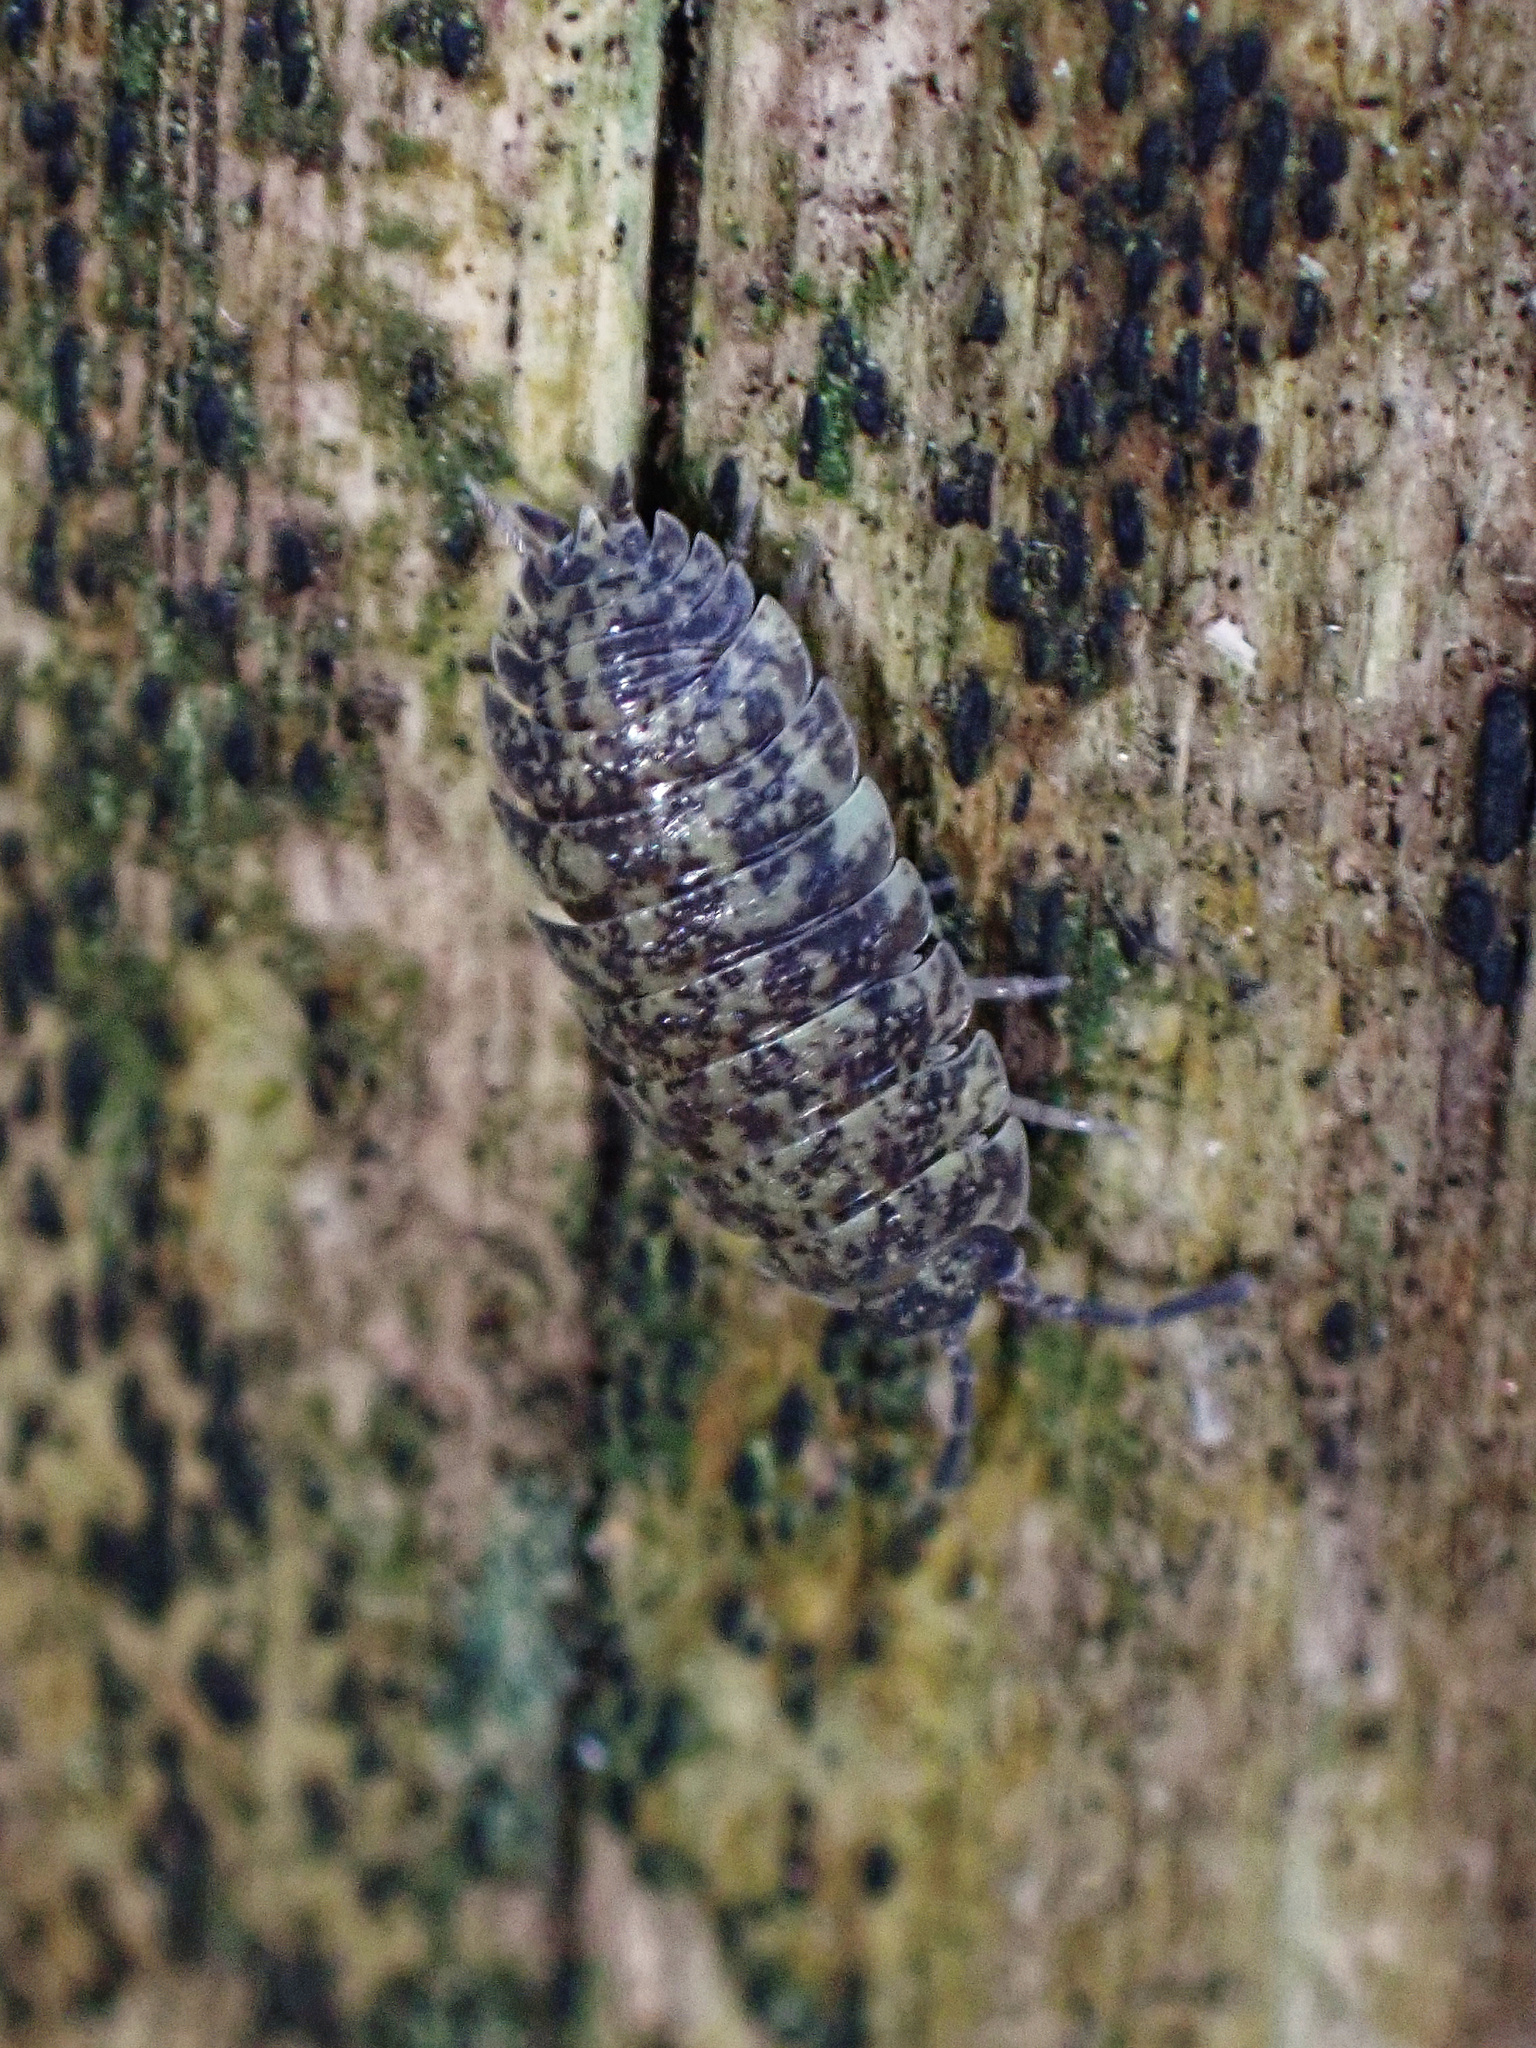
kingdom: Animalia
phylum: Arthropoda
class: Malacostraca
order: Isopoda
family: Porcellionidae
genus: Porcellio
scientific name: Porcellio scaber
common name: Common rough woodlouse
